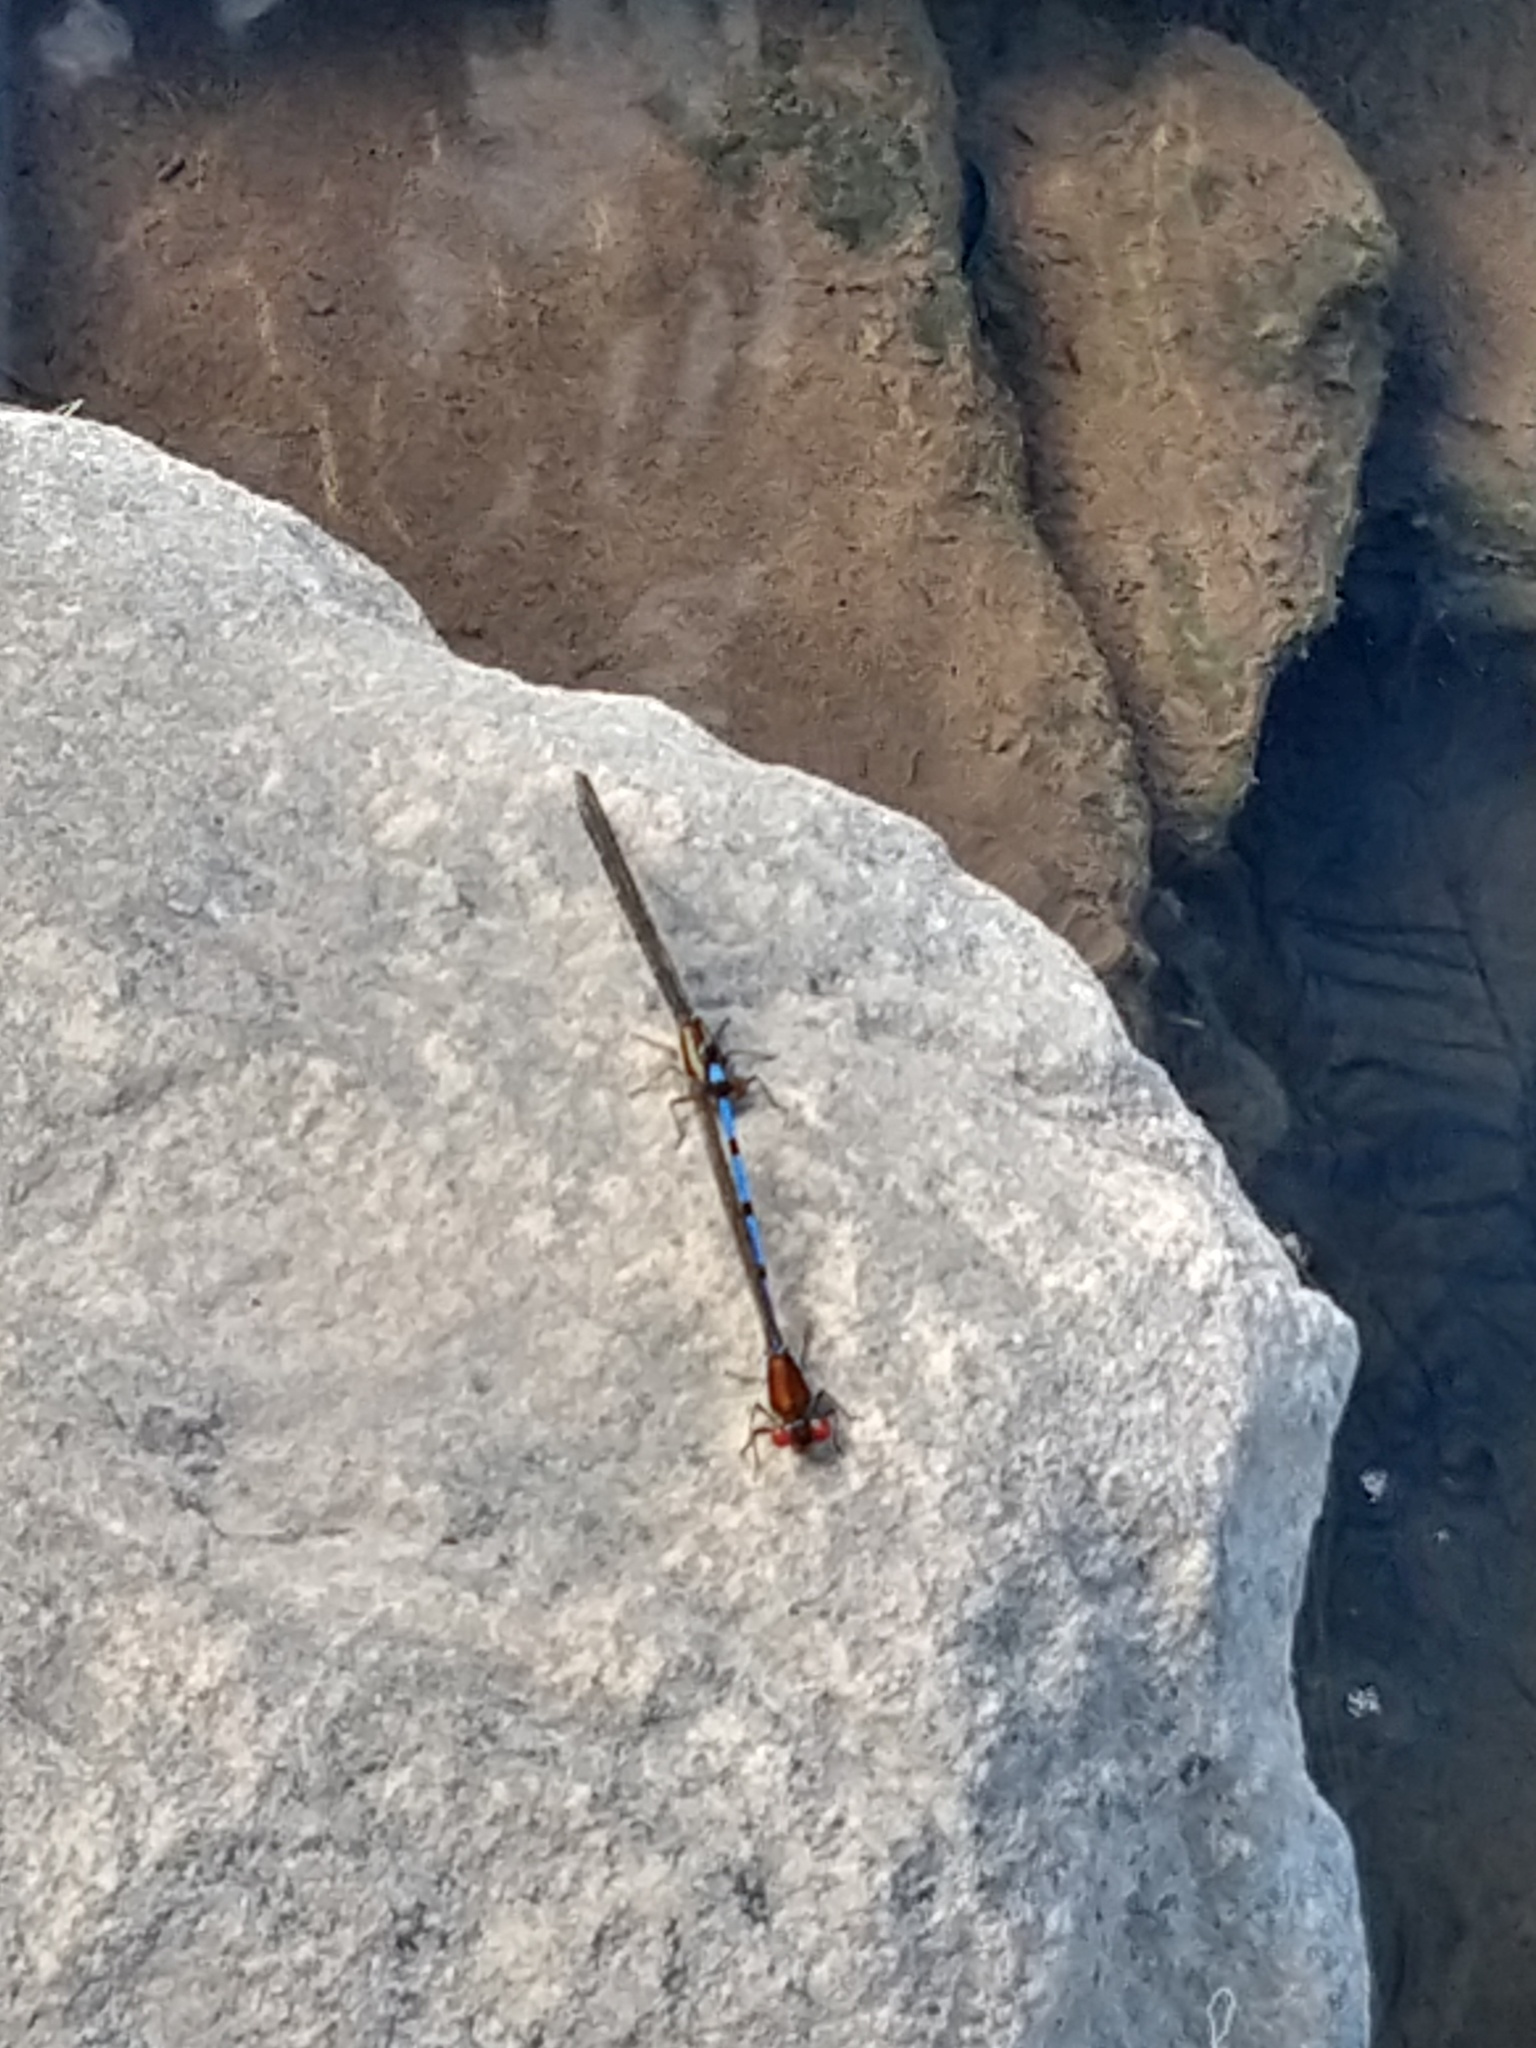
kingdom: Animalia
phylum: Arthropoda
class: Insecta
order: Odonata
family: Coenagrionidae
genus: Argia
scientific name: Argia joergenseni
